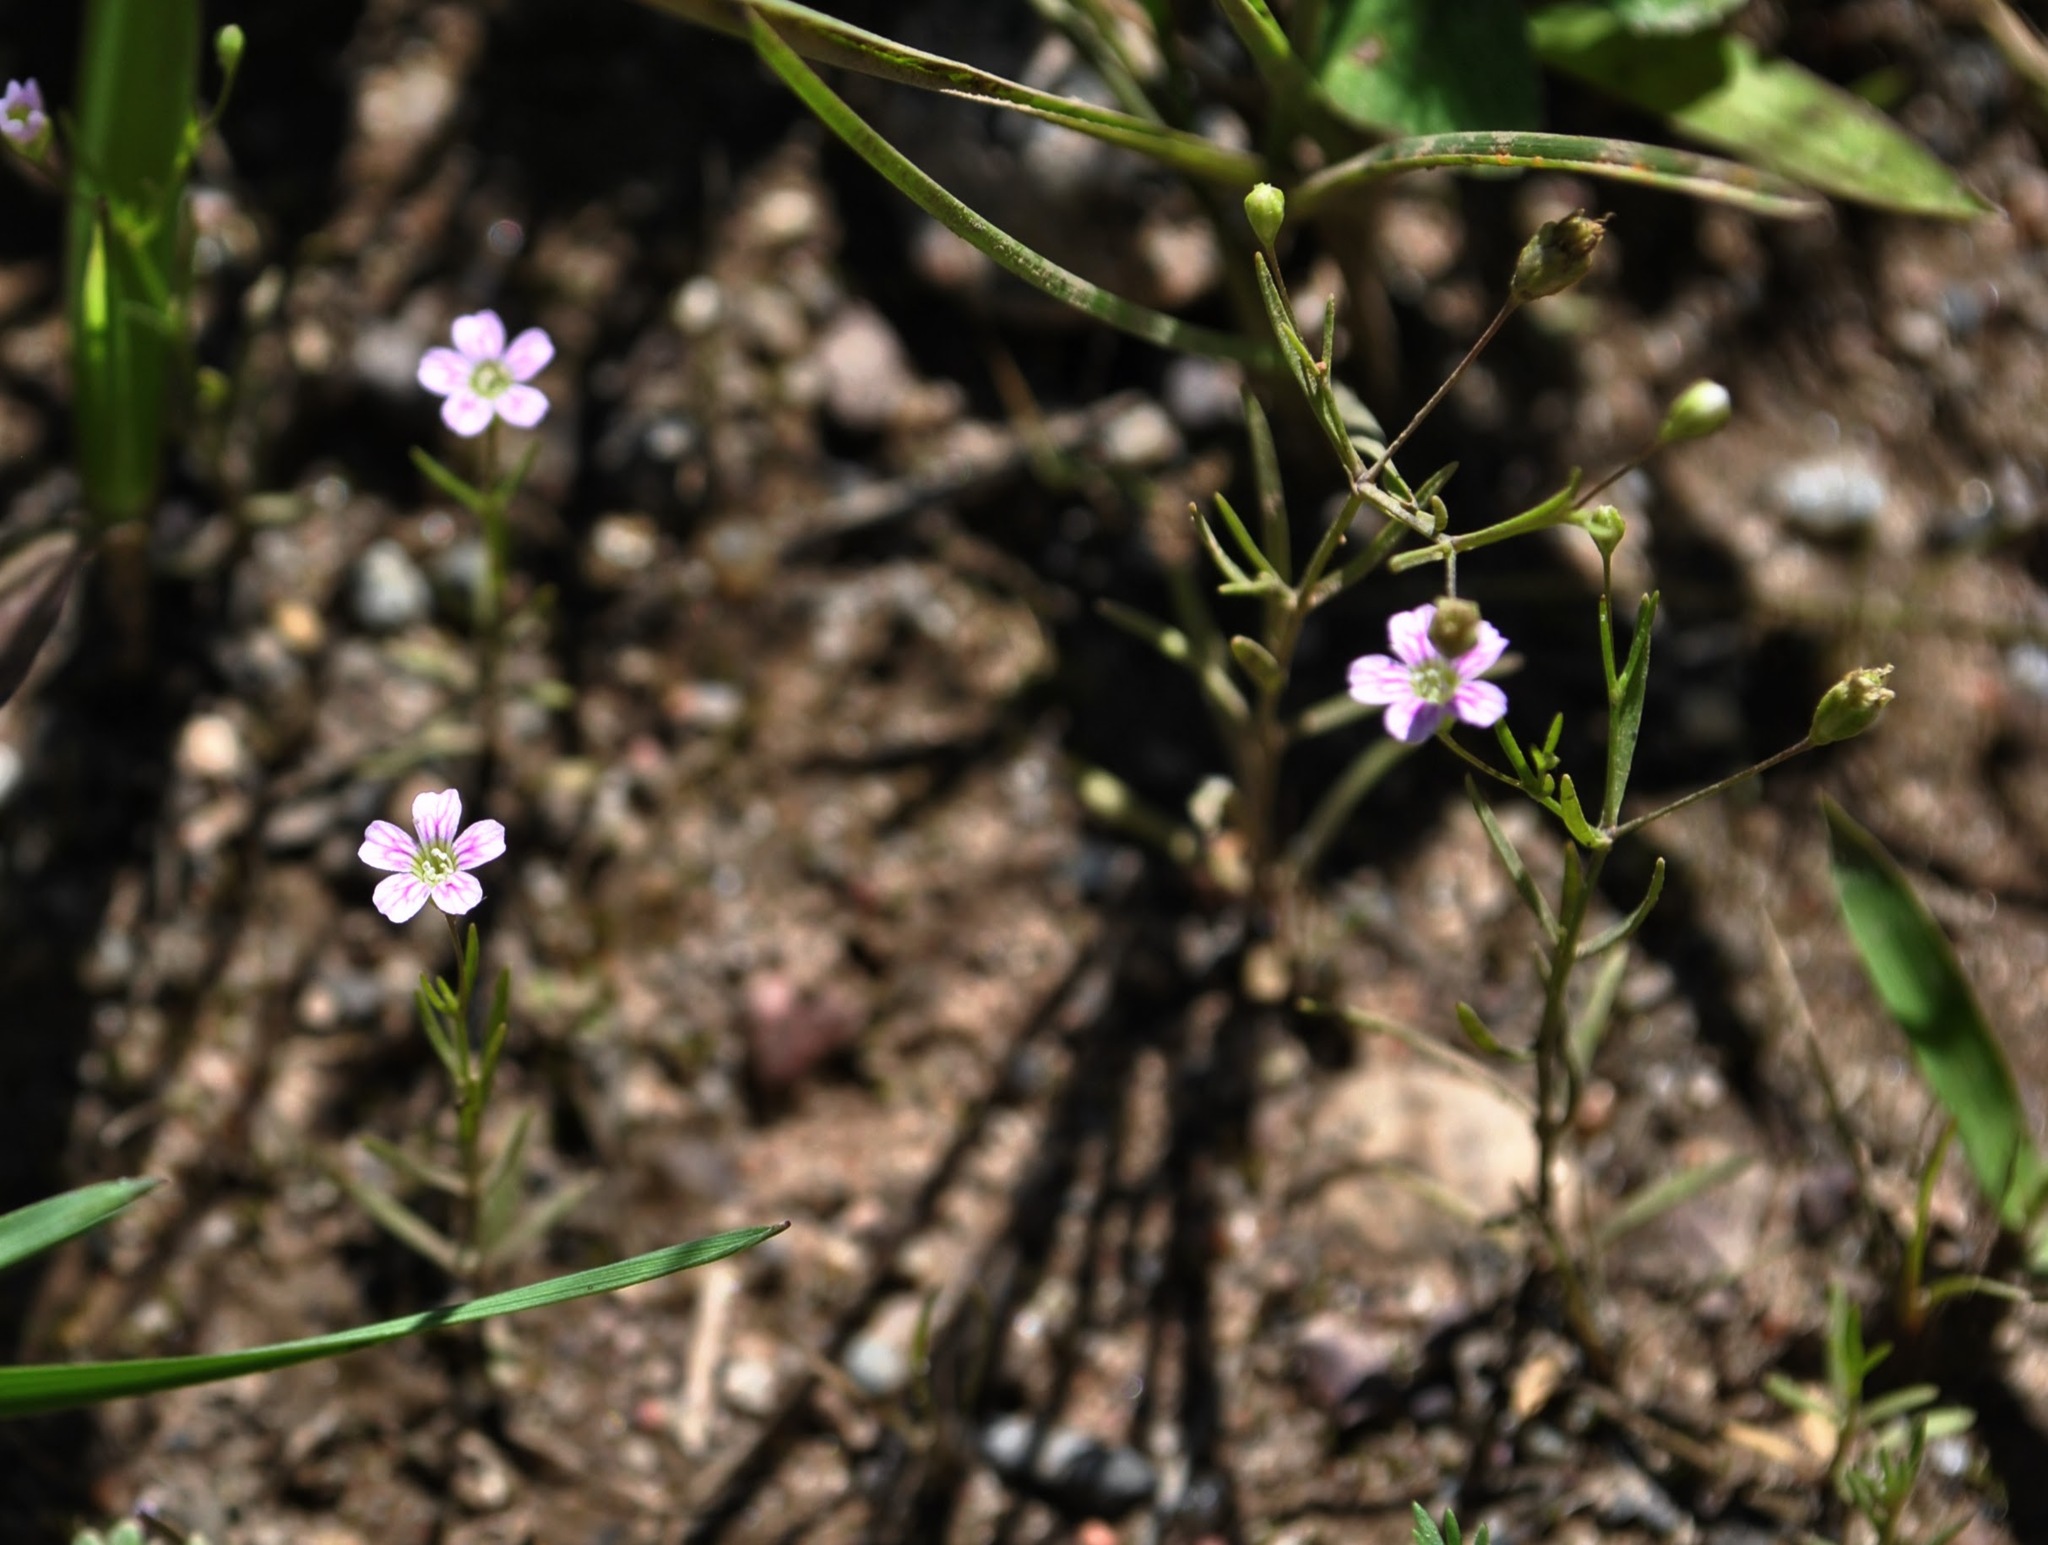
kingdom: Plantae
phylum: Tracheophyta
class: Magnoliopsida
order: Caryophyllales
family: Caryophyllaceae
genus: Psammophiliella
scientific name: Psammophiliella muralis
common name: Cushion baby's-breath
